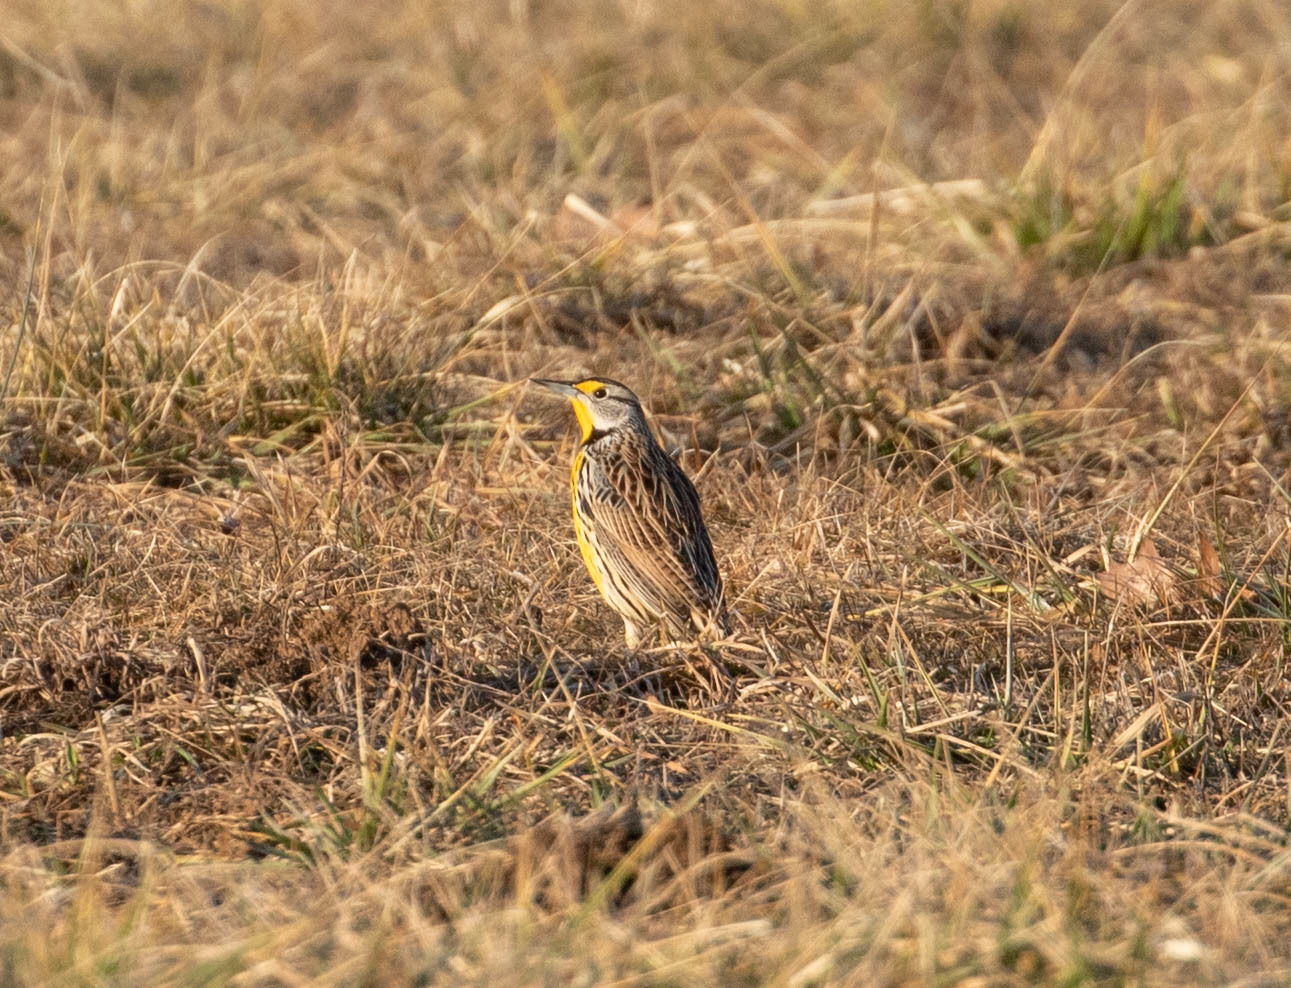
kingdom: Animalia
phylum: Chordata
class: Aves
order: Passeriformes
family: Icteridae
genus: Sturnella
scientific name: Sturnella magna
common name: Eastern meadowlark
